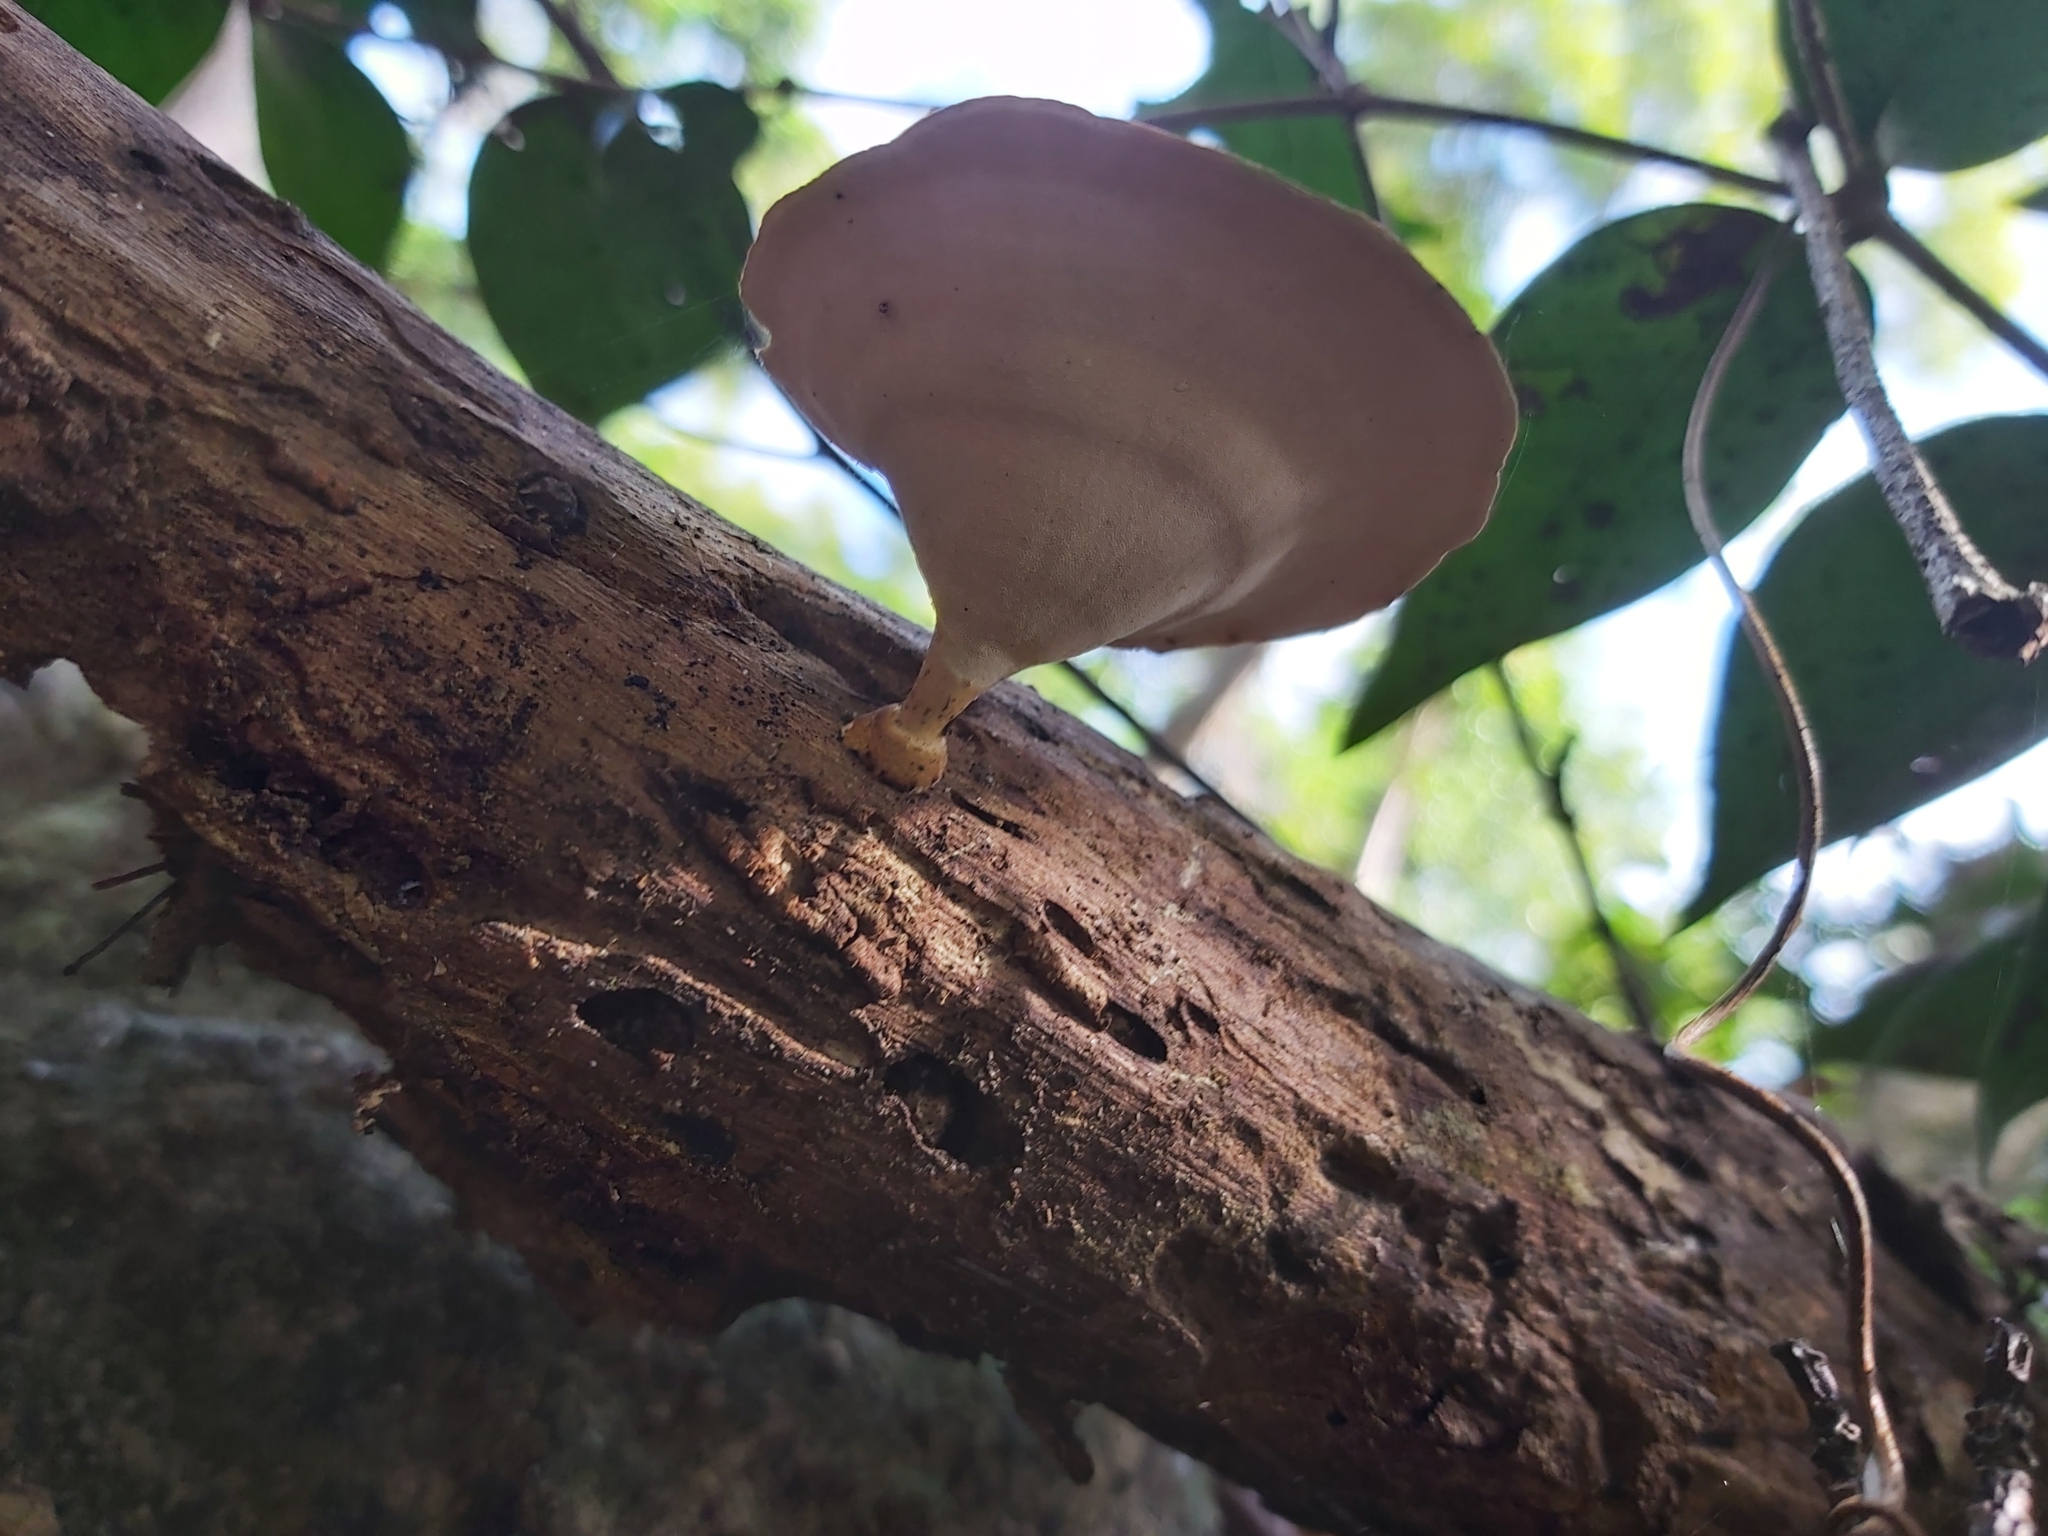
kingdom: Fungi
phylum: Basidiomycota
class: Agaricomycetes
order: Polyporales
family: Polyporaceae
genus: Microporus
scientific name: Microporus xanthopus
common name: Yellow-stemmed micropore
